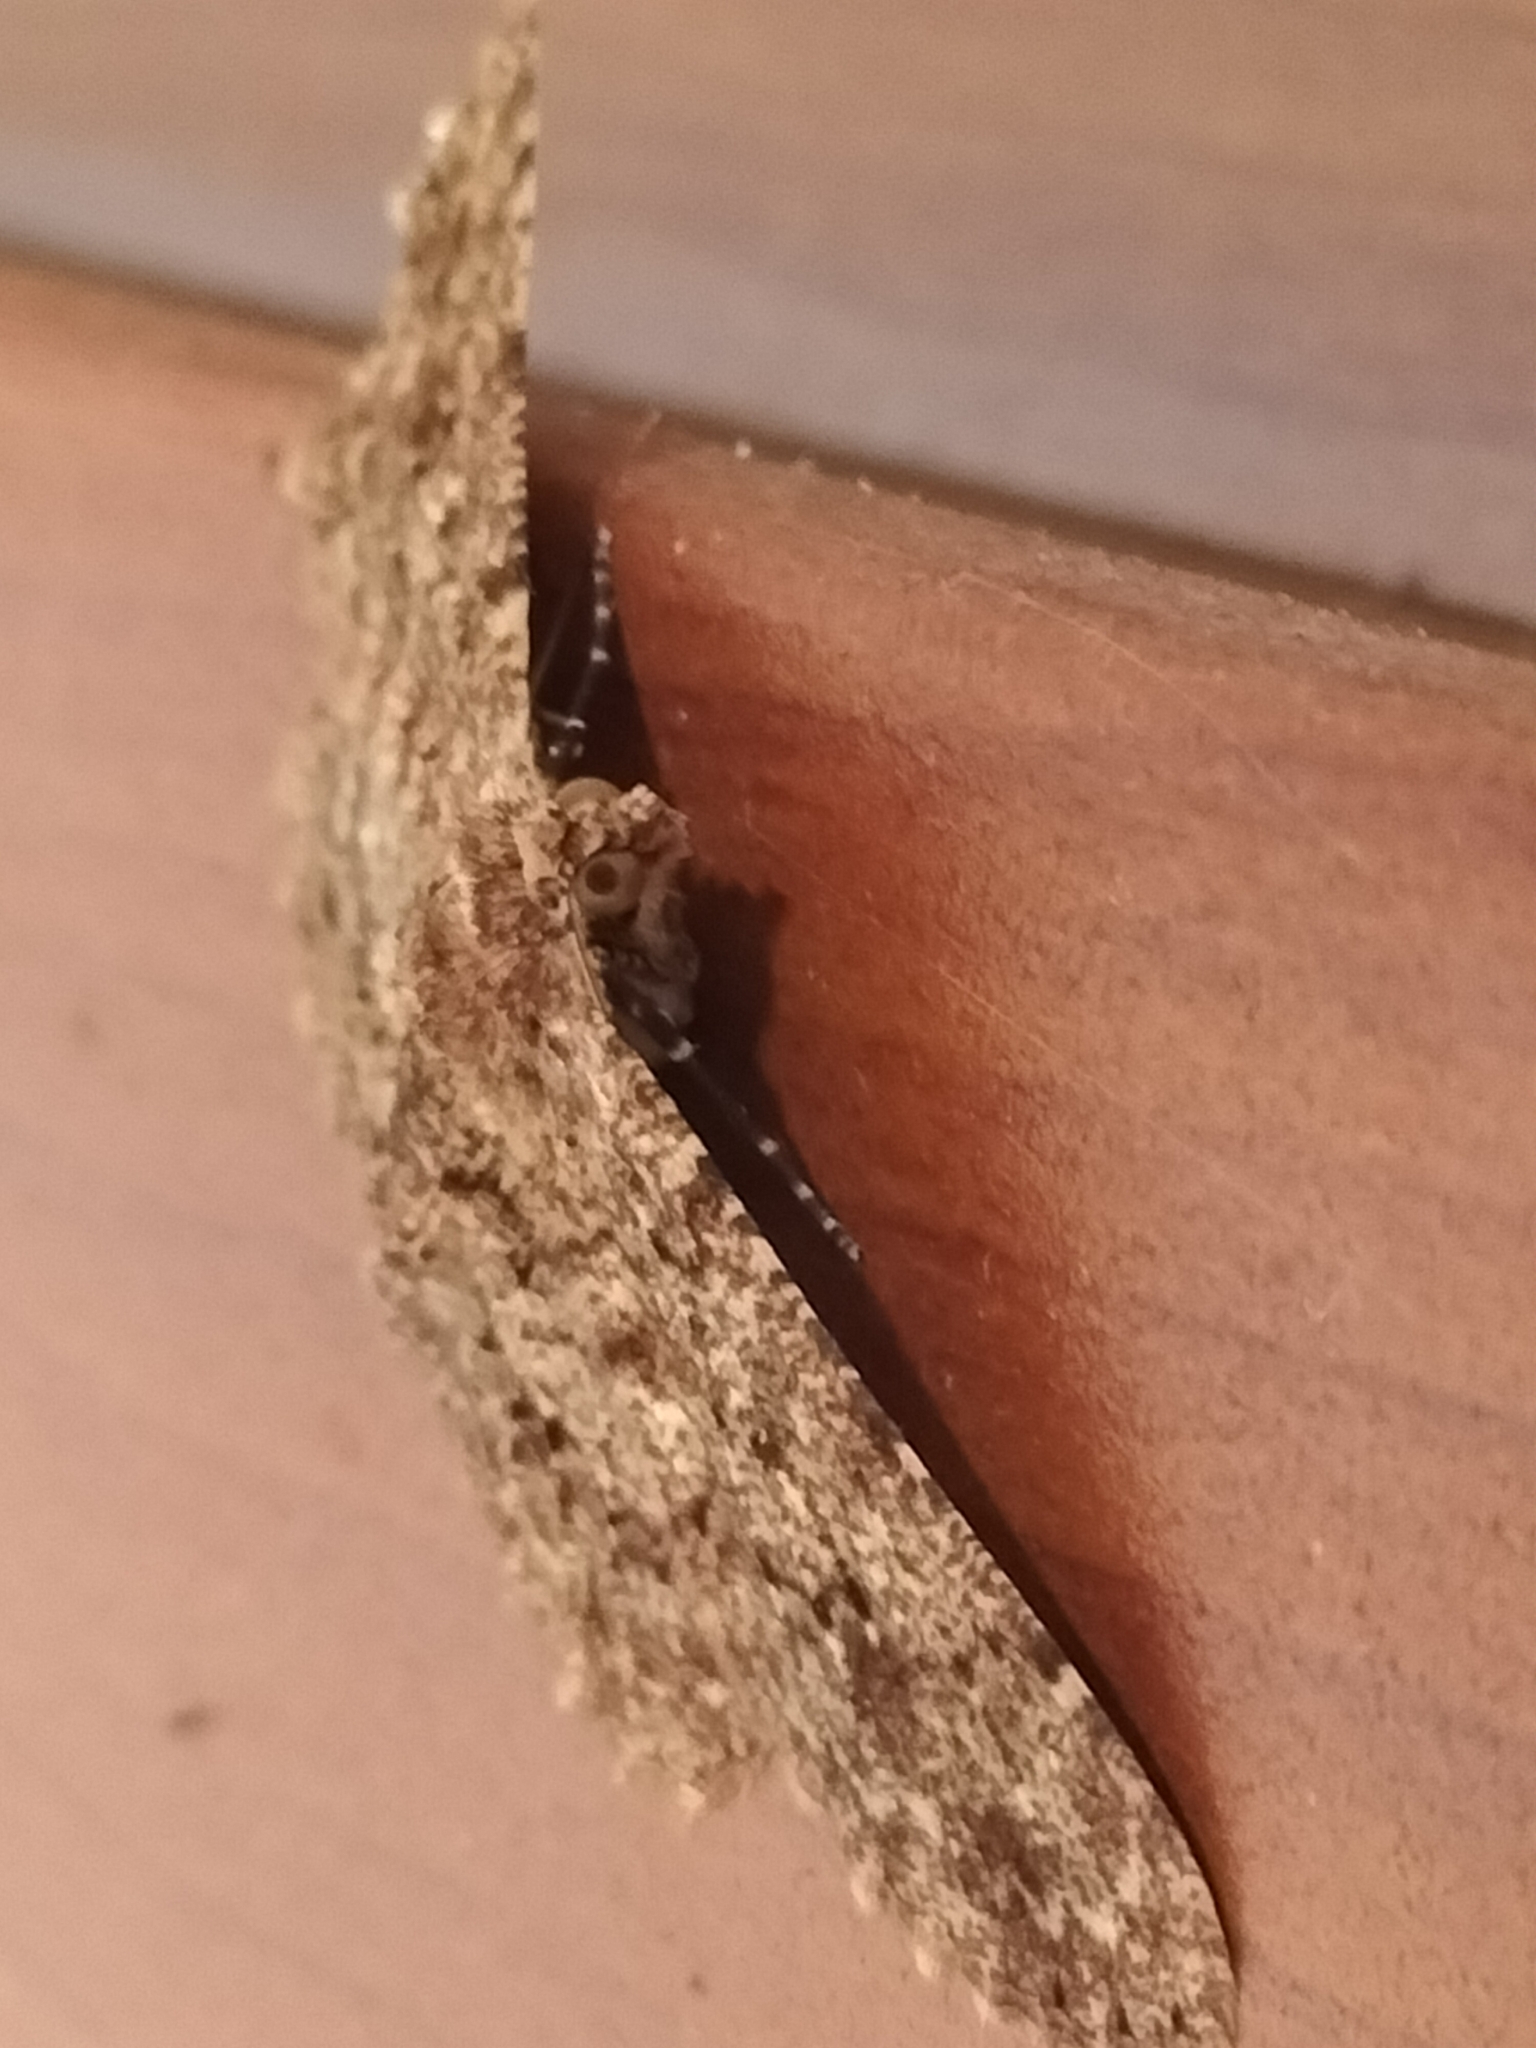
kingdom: Animalia
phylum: Arthropoda
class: Insecta
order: Lepidoptera
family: Geometridae
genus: Racotis
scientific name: Racotis maculata
